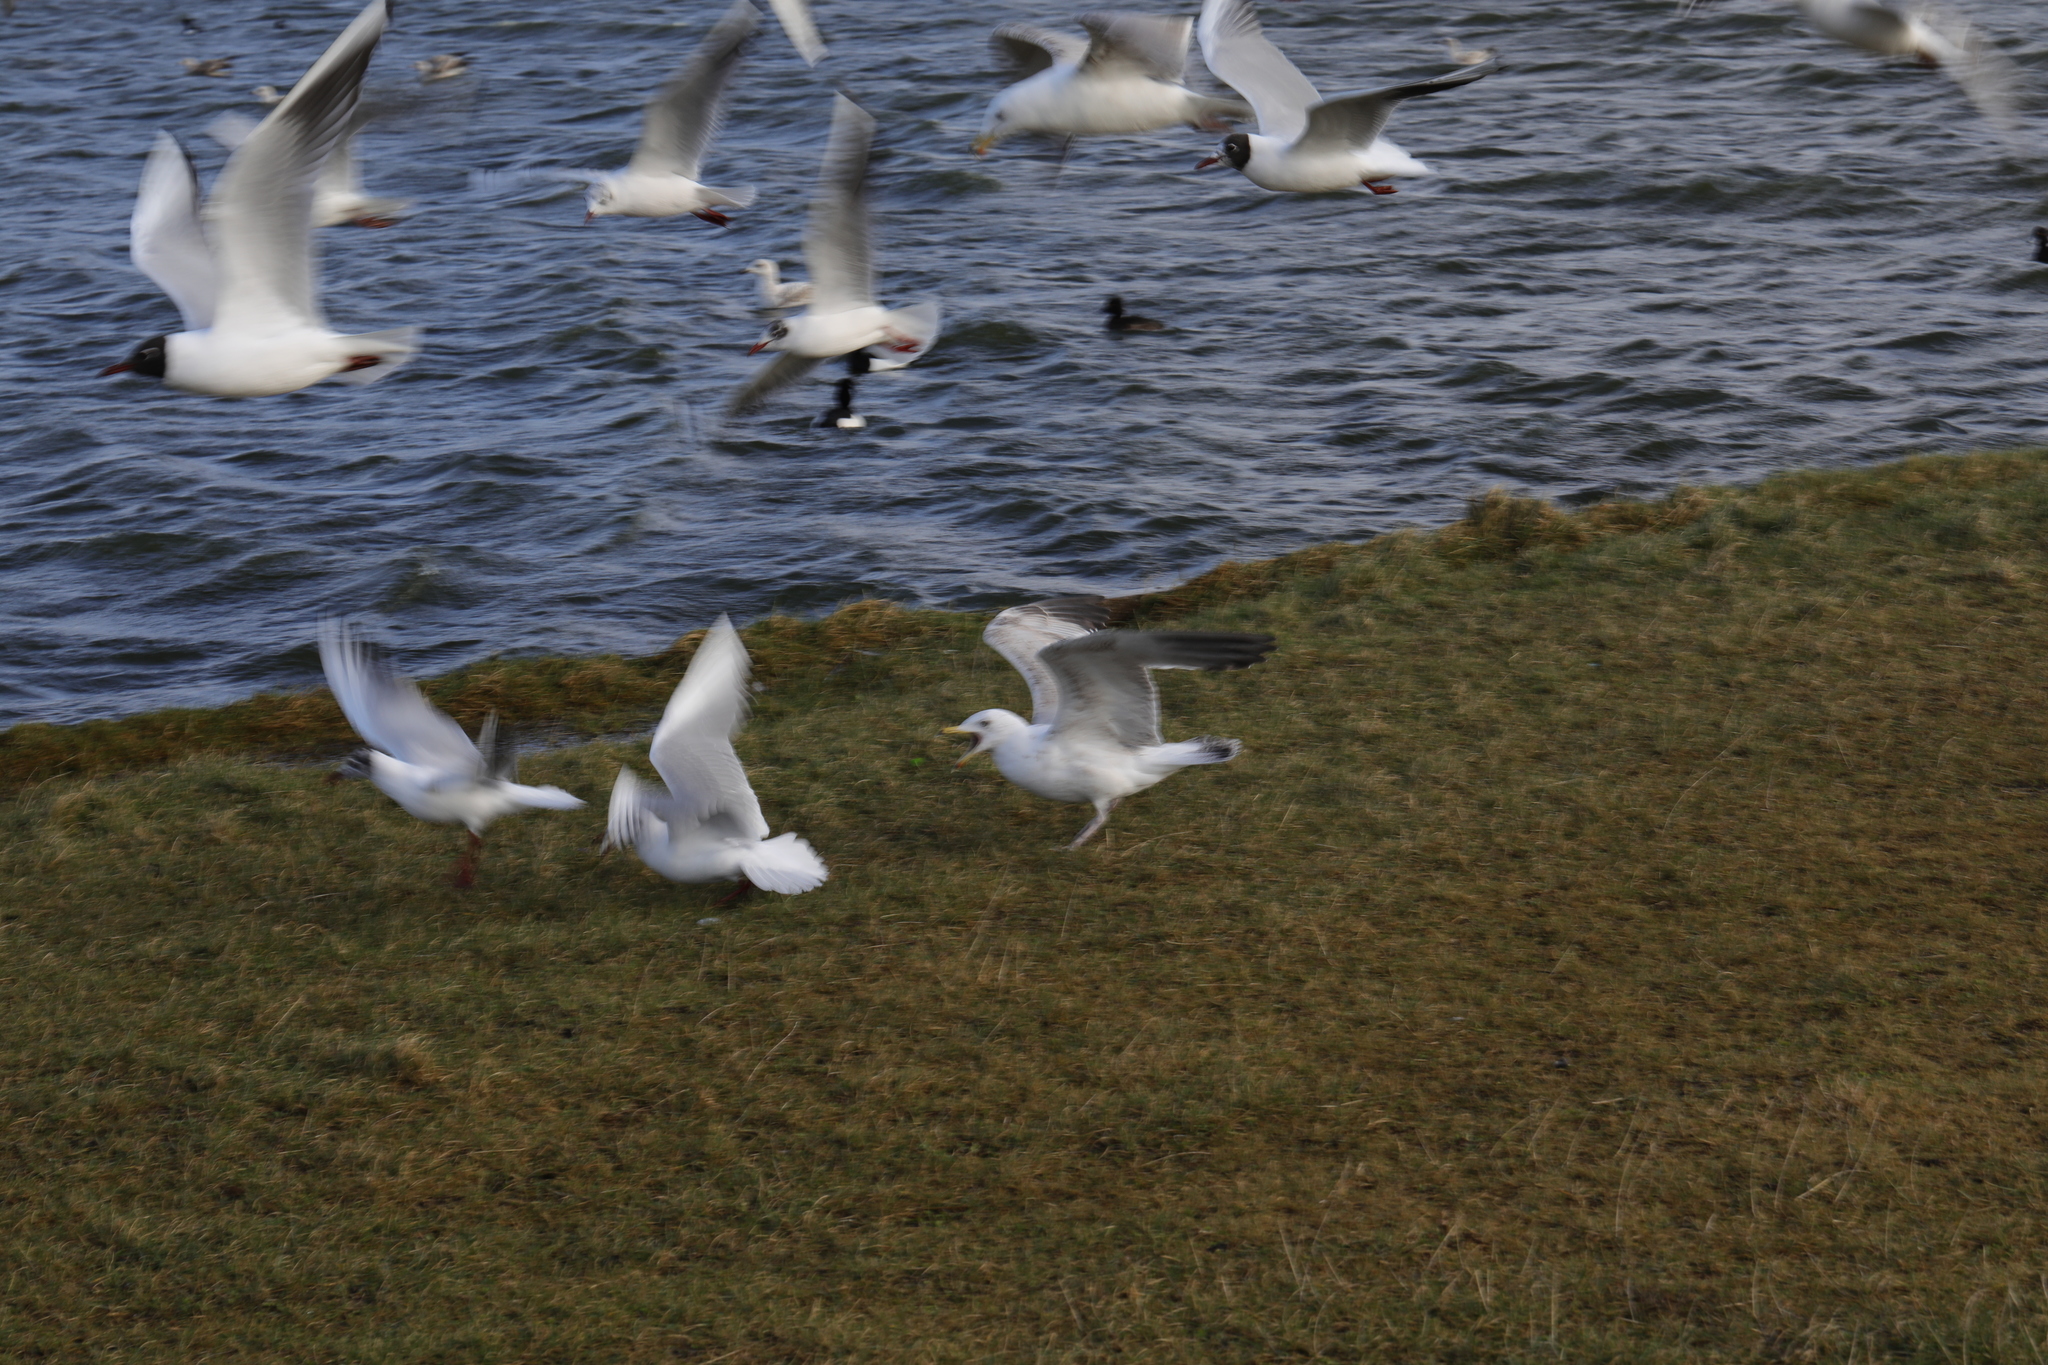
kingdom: Animalia
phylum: Chordata
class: Aves
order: Charadriiformes
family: Laridae
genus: Larus
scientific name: Larus argentatus
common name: Herring gull
